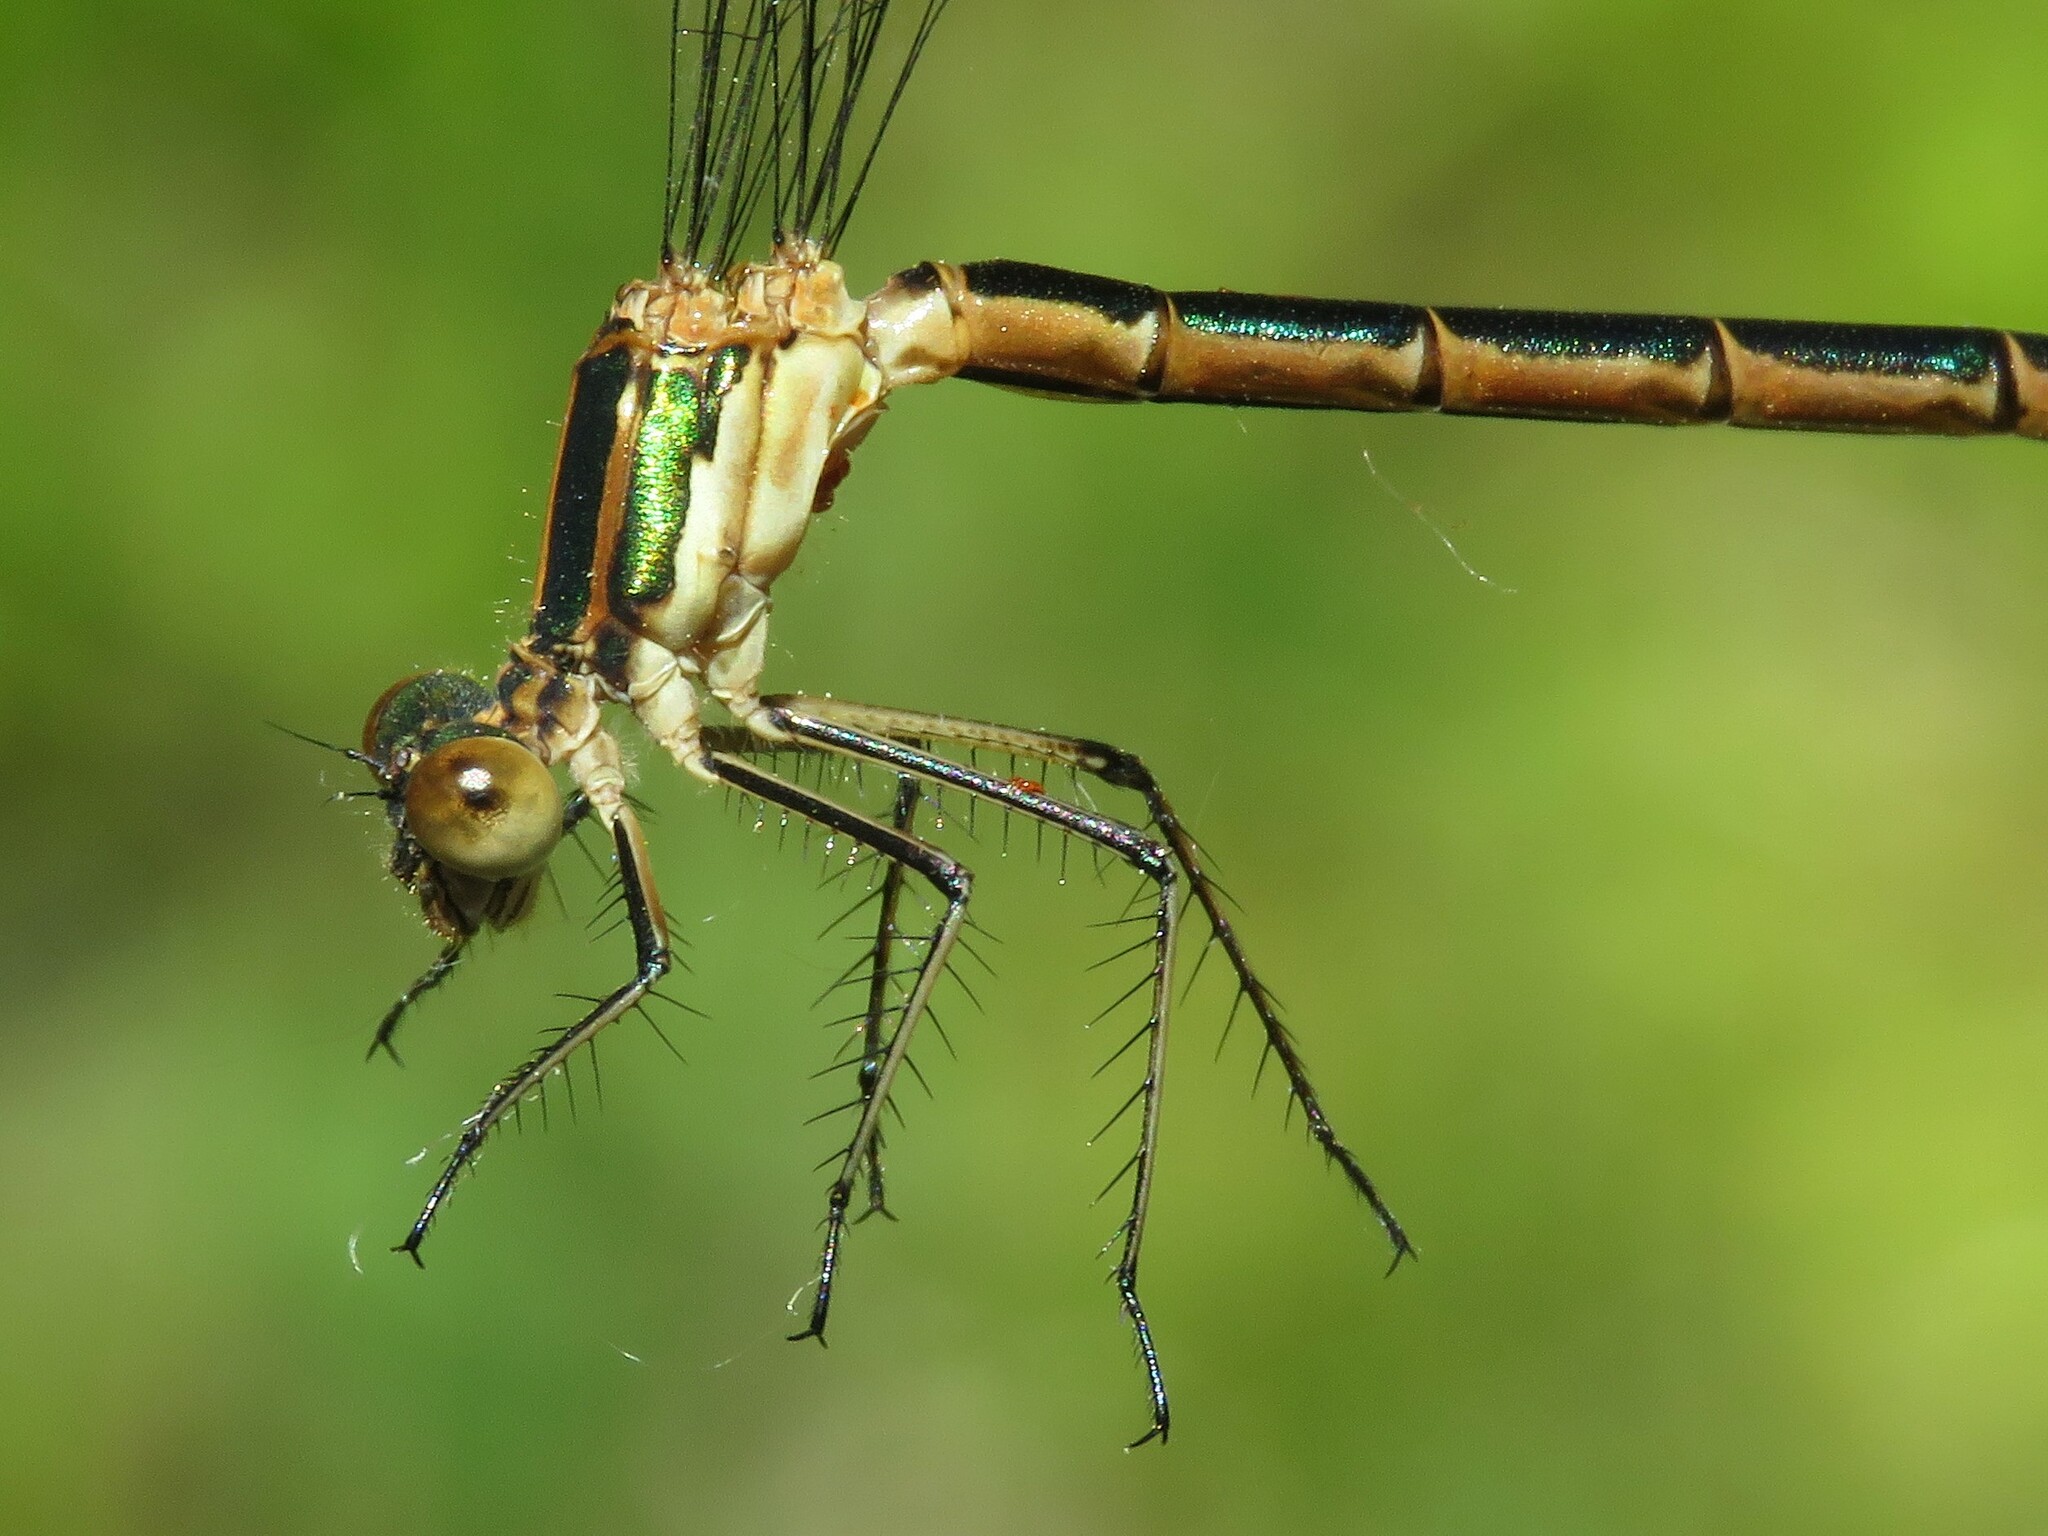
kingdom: Animalia
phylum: Arthropoda
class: Insecta
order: Odonata
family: Lestidae
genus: Lestes
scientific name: Lestes dryas
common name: Scarce emerald damselfly
